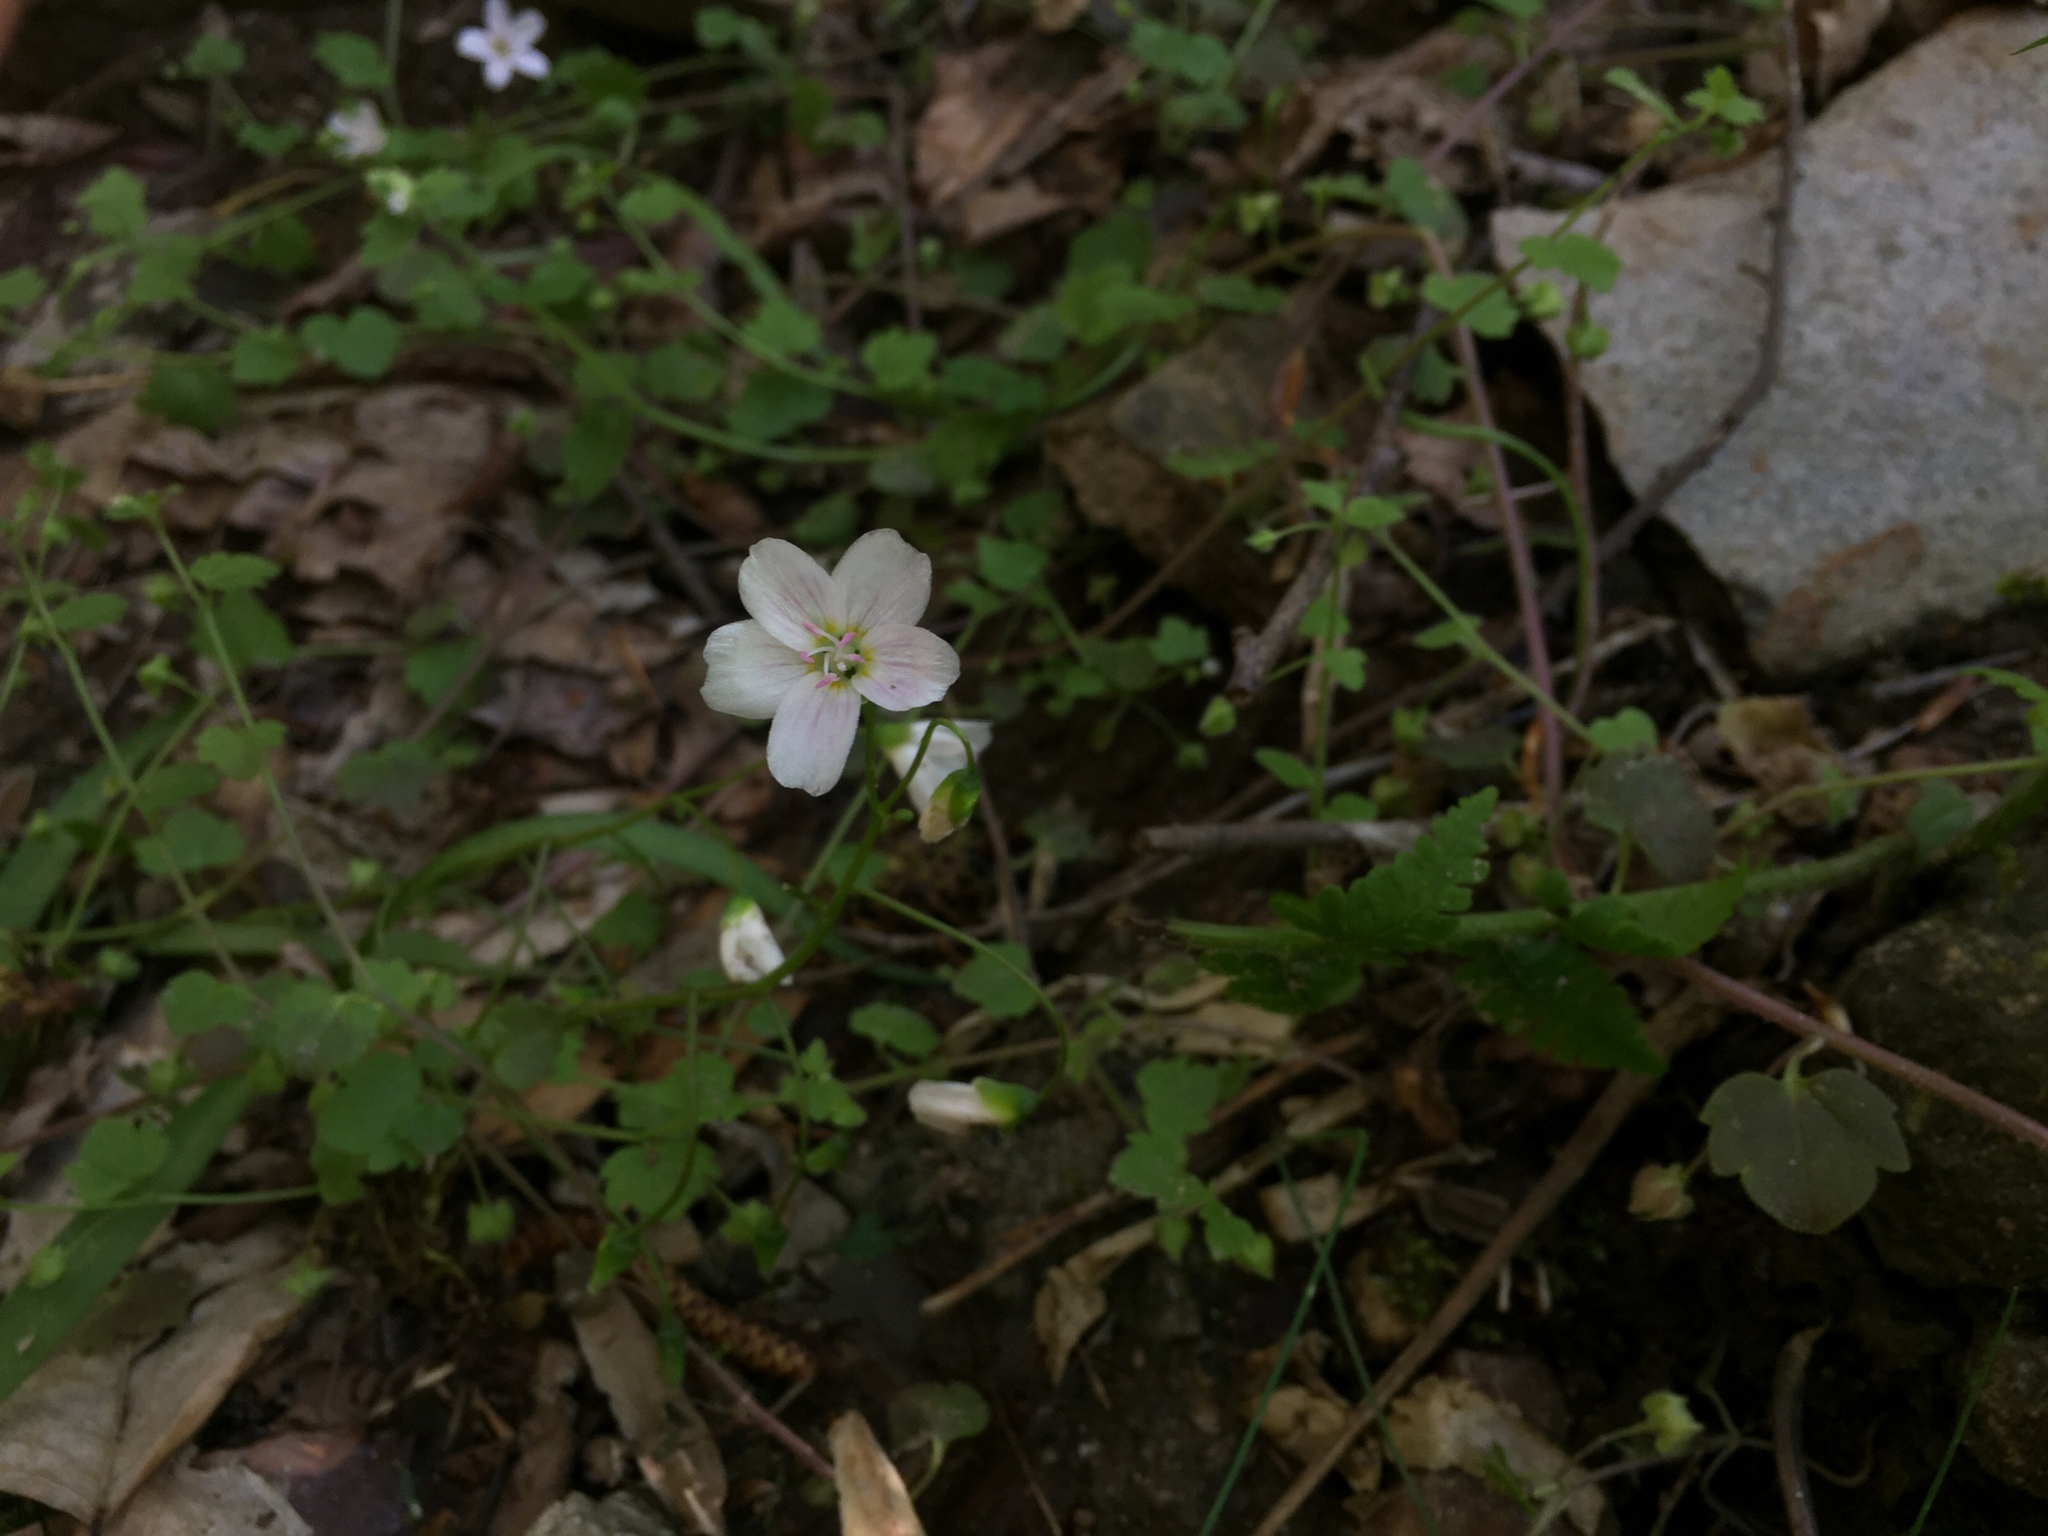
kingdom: Plantae
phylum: Tracheophyta
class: Magnoliopsida
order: Caryophyllales
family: Montiaceae
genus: Claytonia
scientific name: Claytonia virginica
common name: Virginia springbeauty
